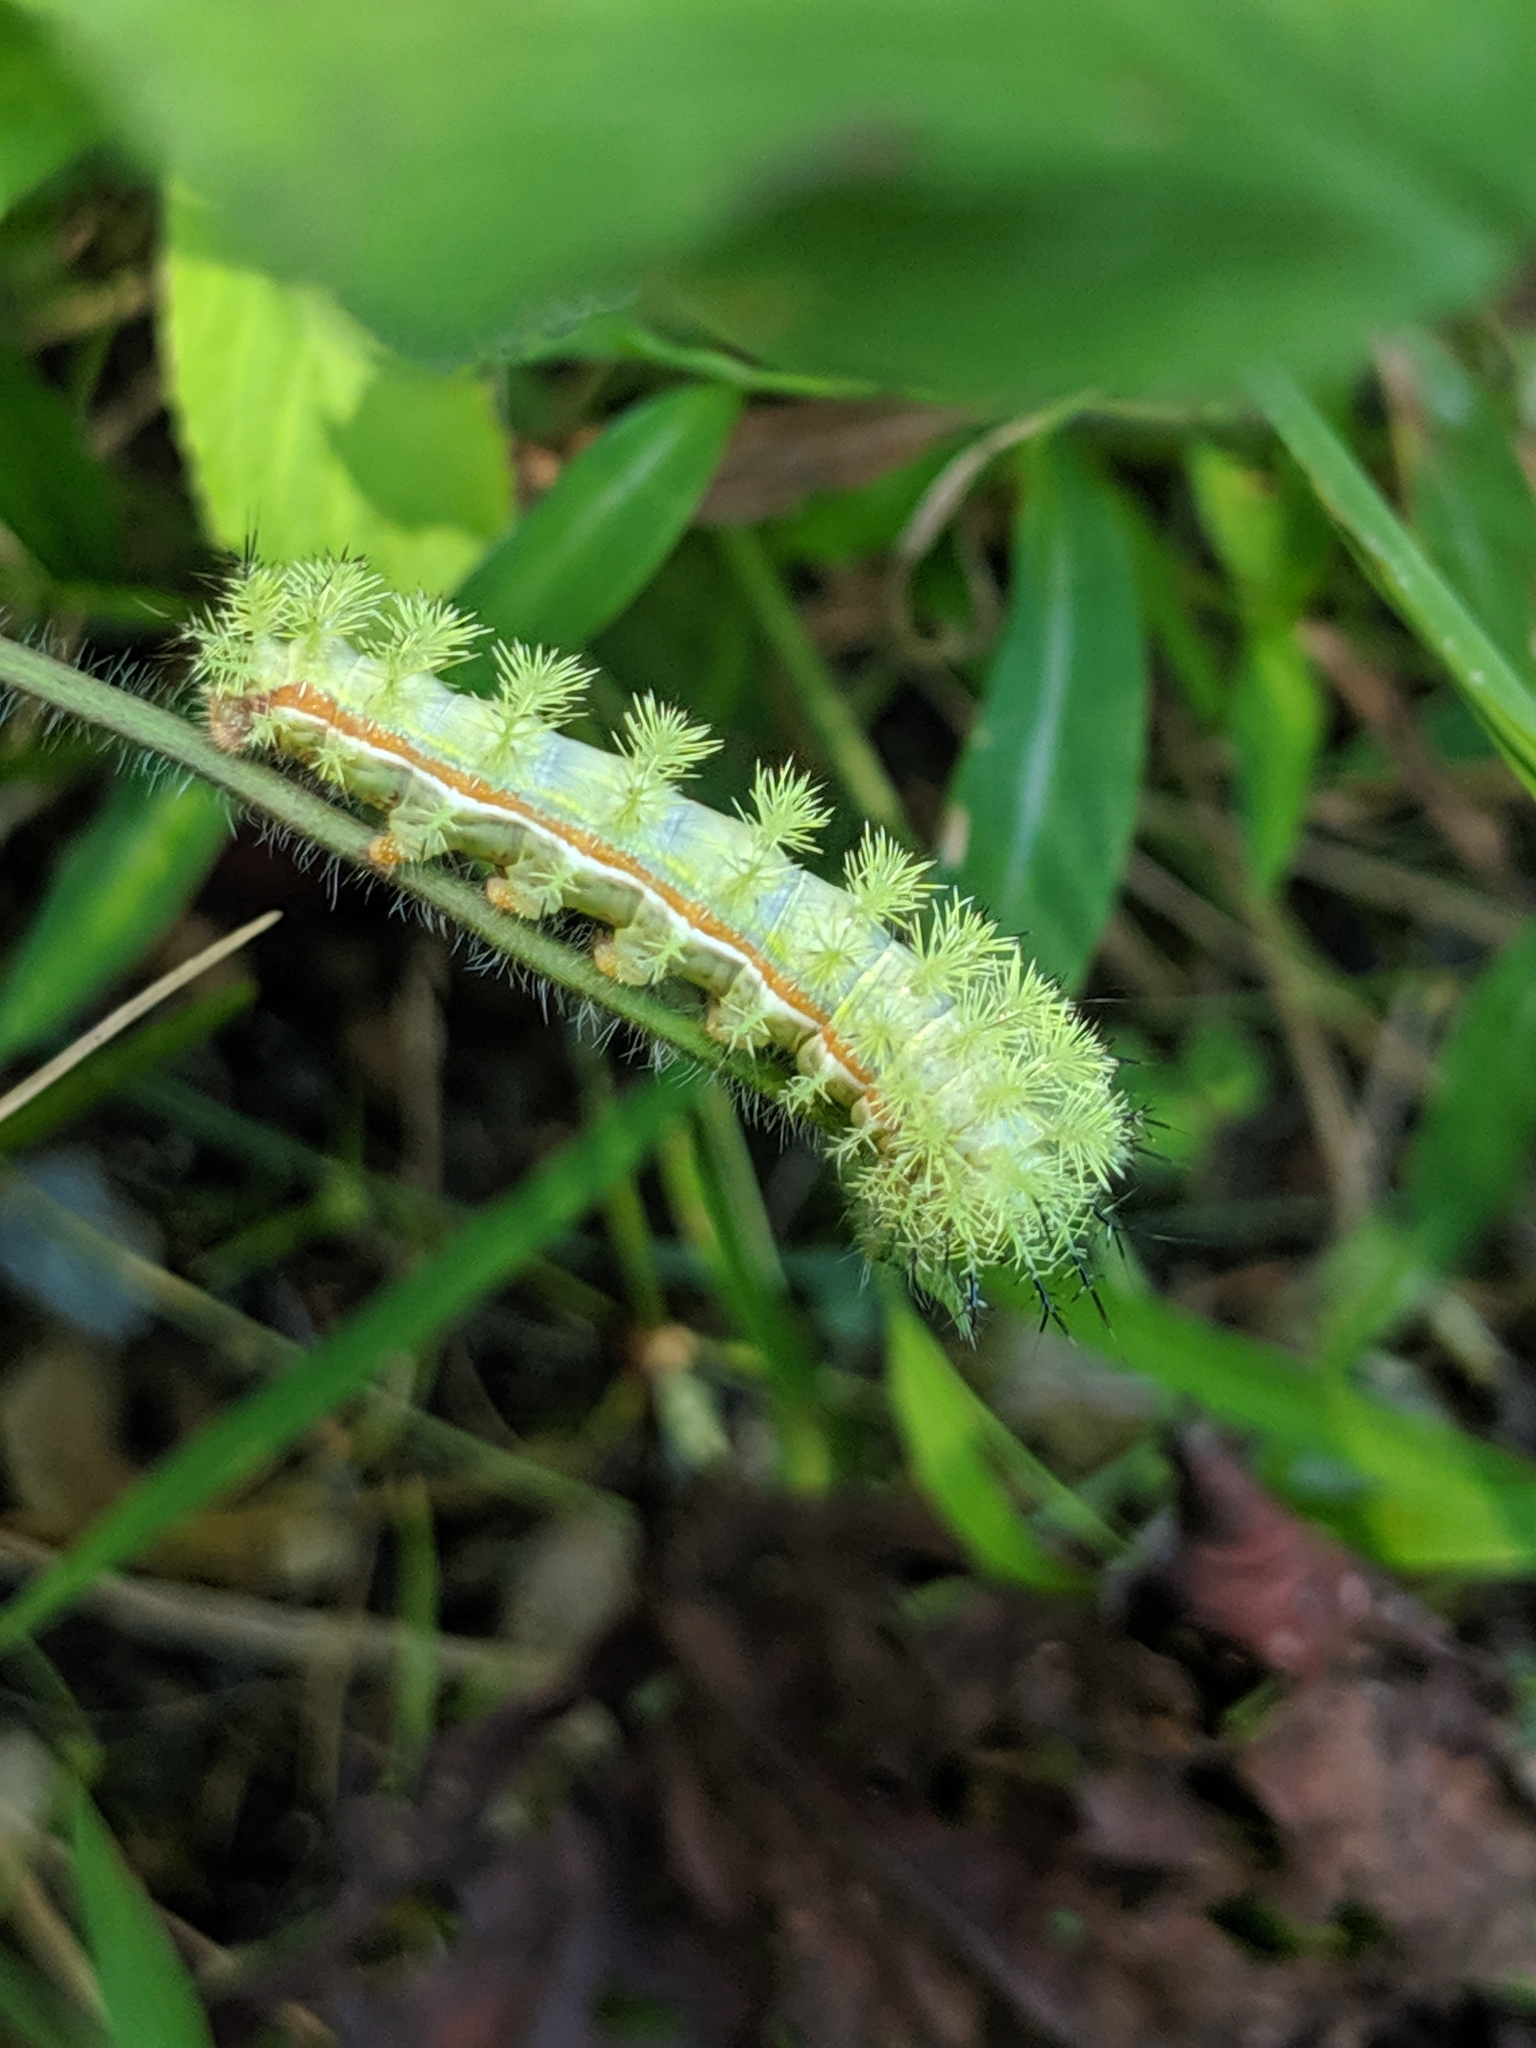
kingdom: Animalia
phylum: Arthropoda
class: Insecta
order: Lepidoptera
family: Saturniidae
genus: Automeris
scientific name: Automeris io
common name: Io moth
